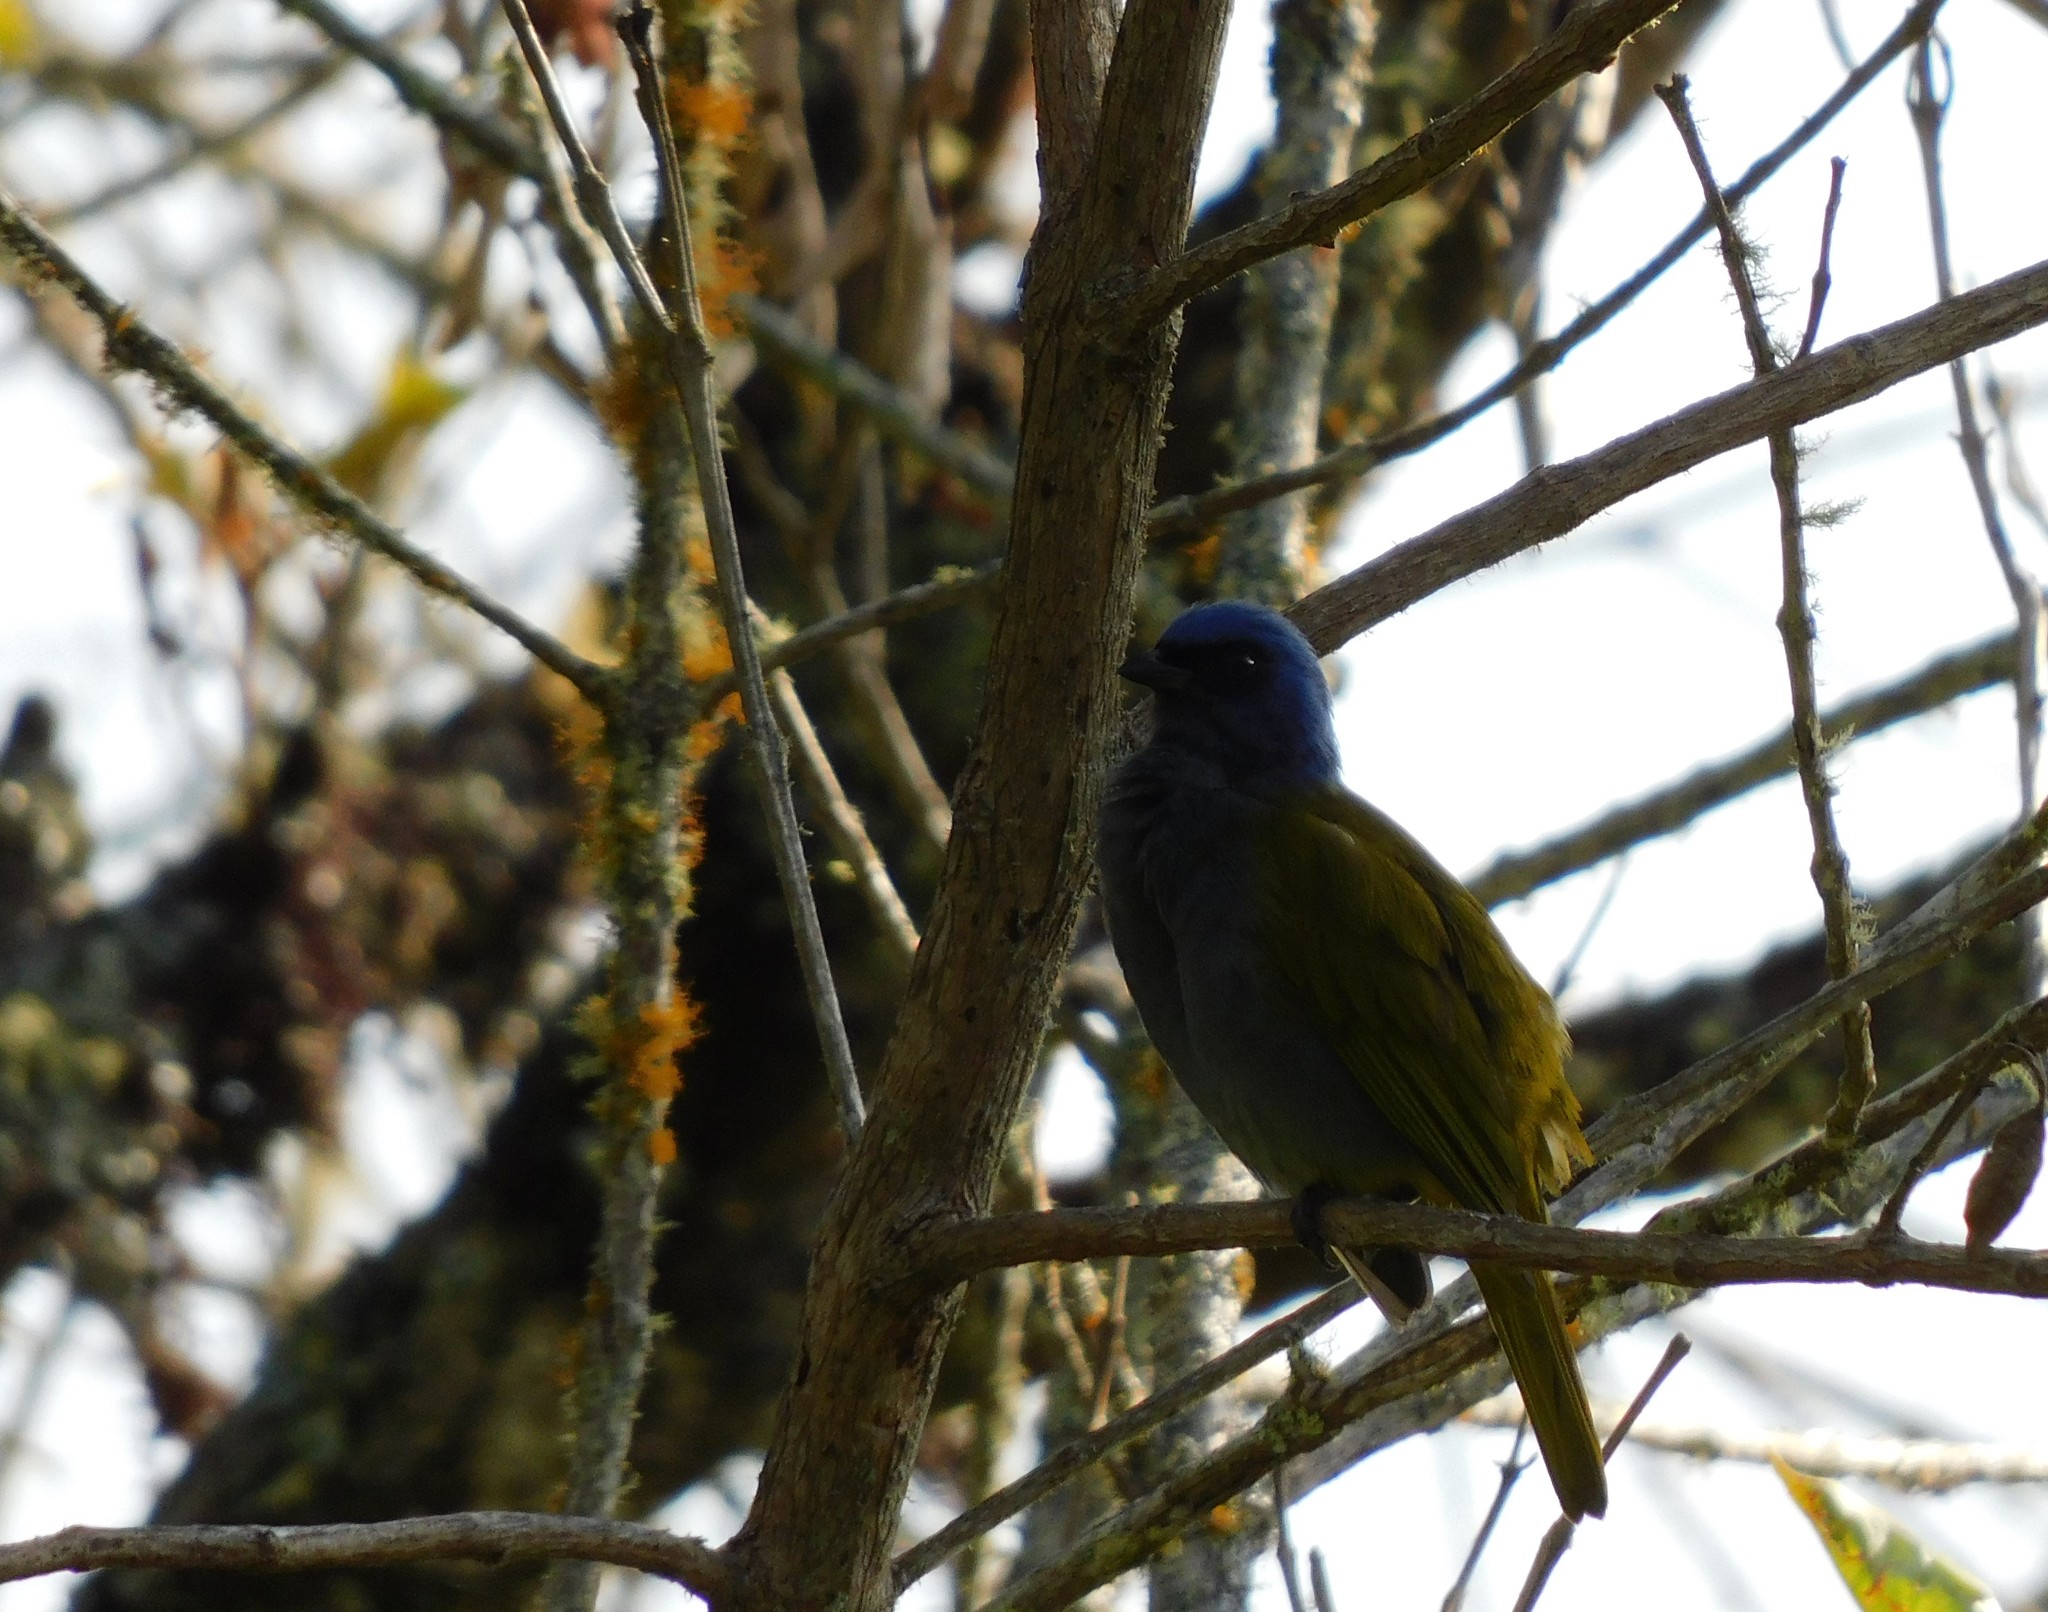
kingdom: Animalia
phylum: Chordata
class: Aves
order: Passeriformes
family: Thraupidae
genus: Sporathraupis
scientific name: Sporathraupis cyanocephala
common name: Blue-capped tanager
